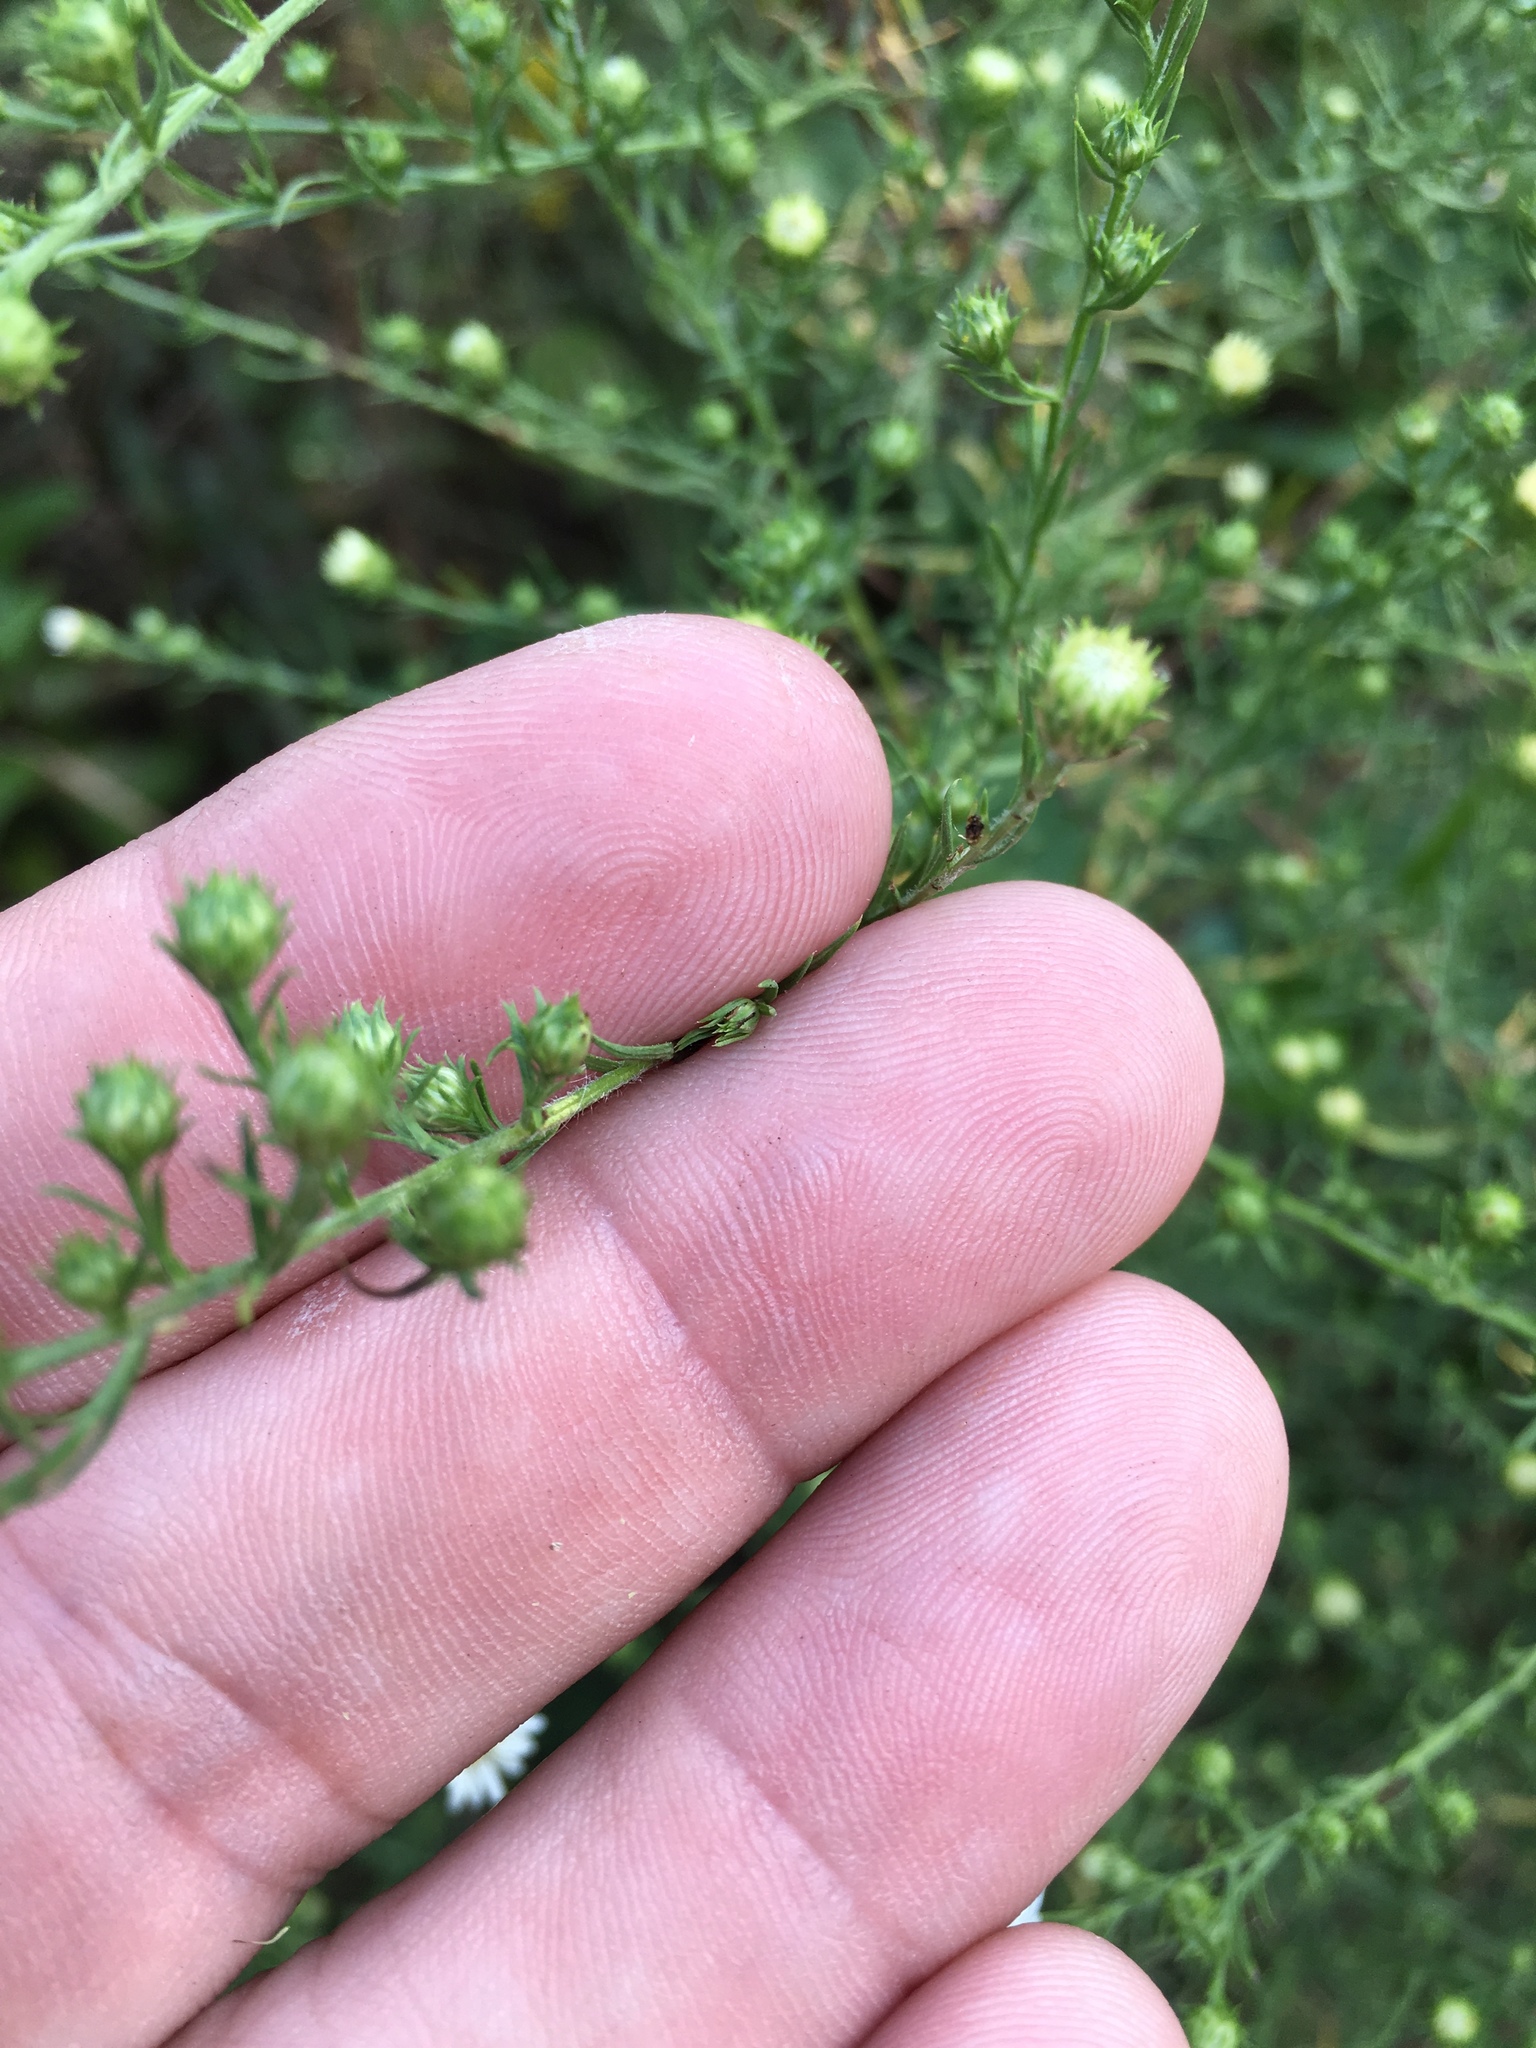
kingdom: Plantae
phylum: Tracheophyta
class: Magnoliopsida
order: Asterales
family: Asteraceae
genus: Symphyotrichum
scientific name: Symphyotrichum pilosum
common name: Awl aster
